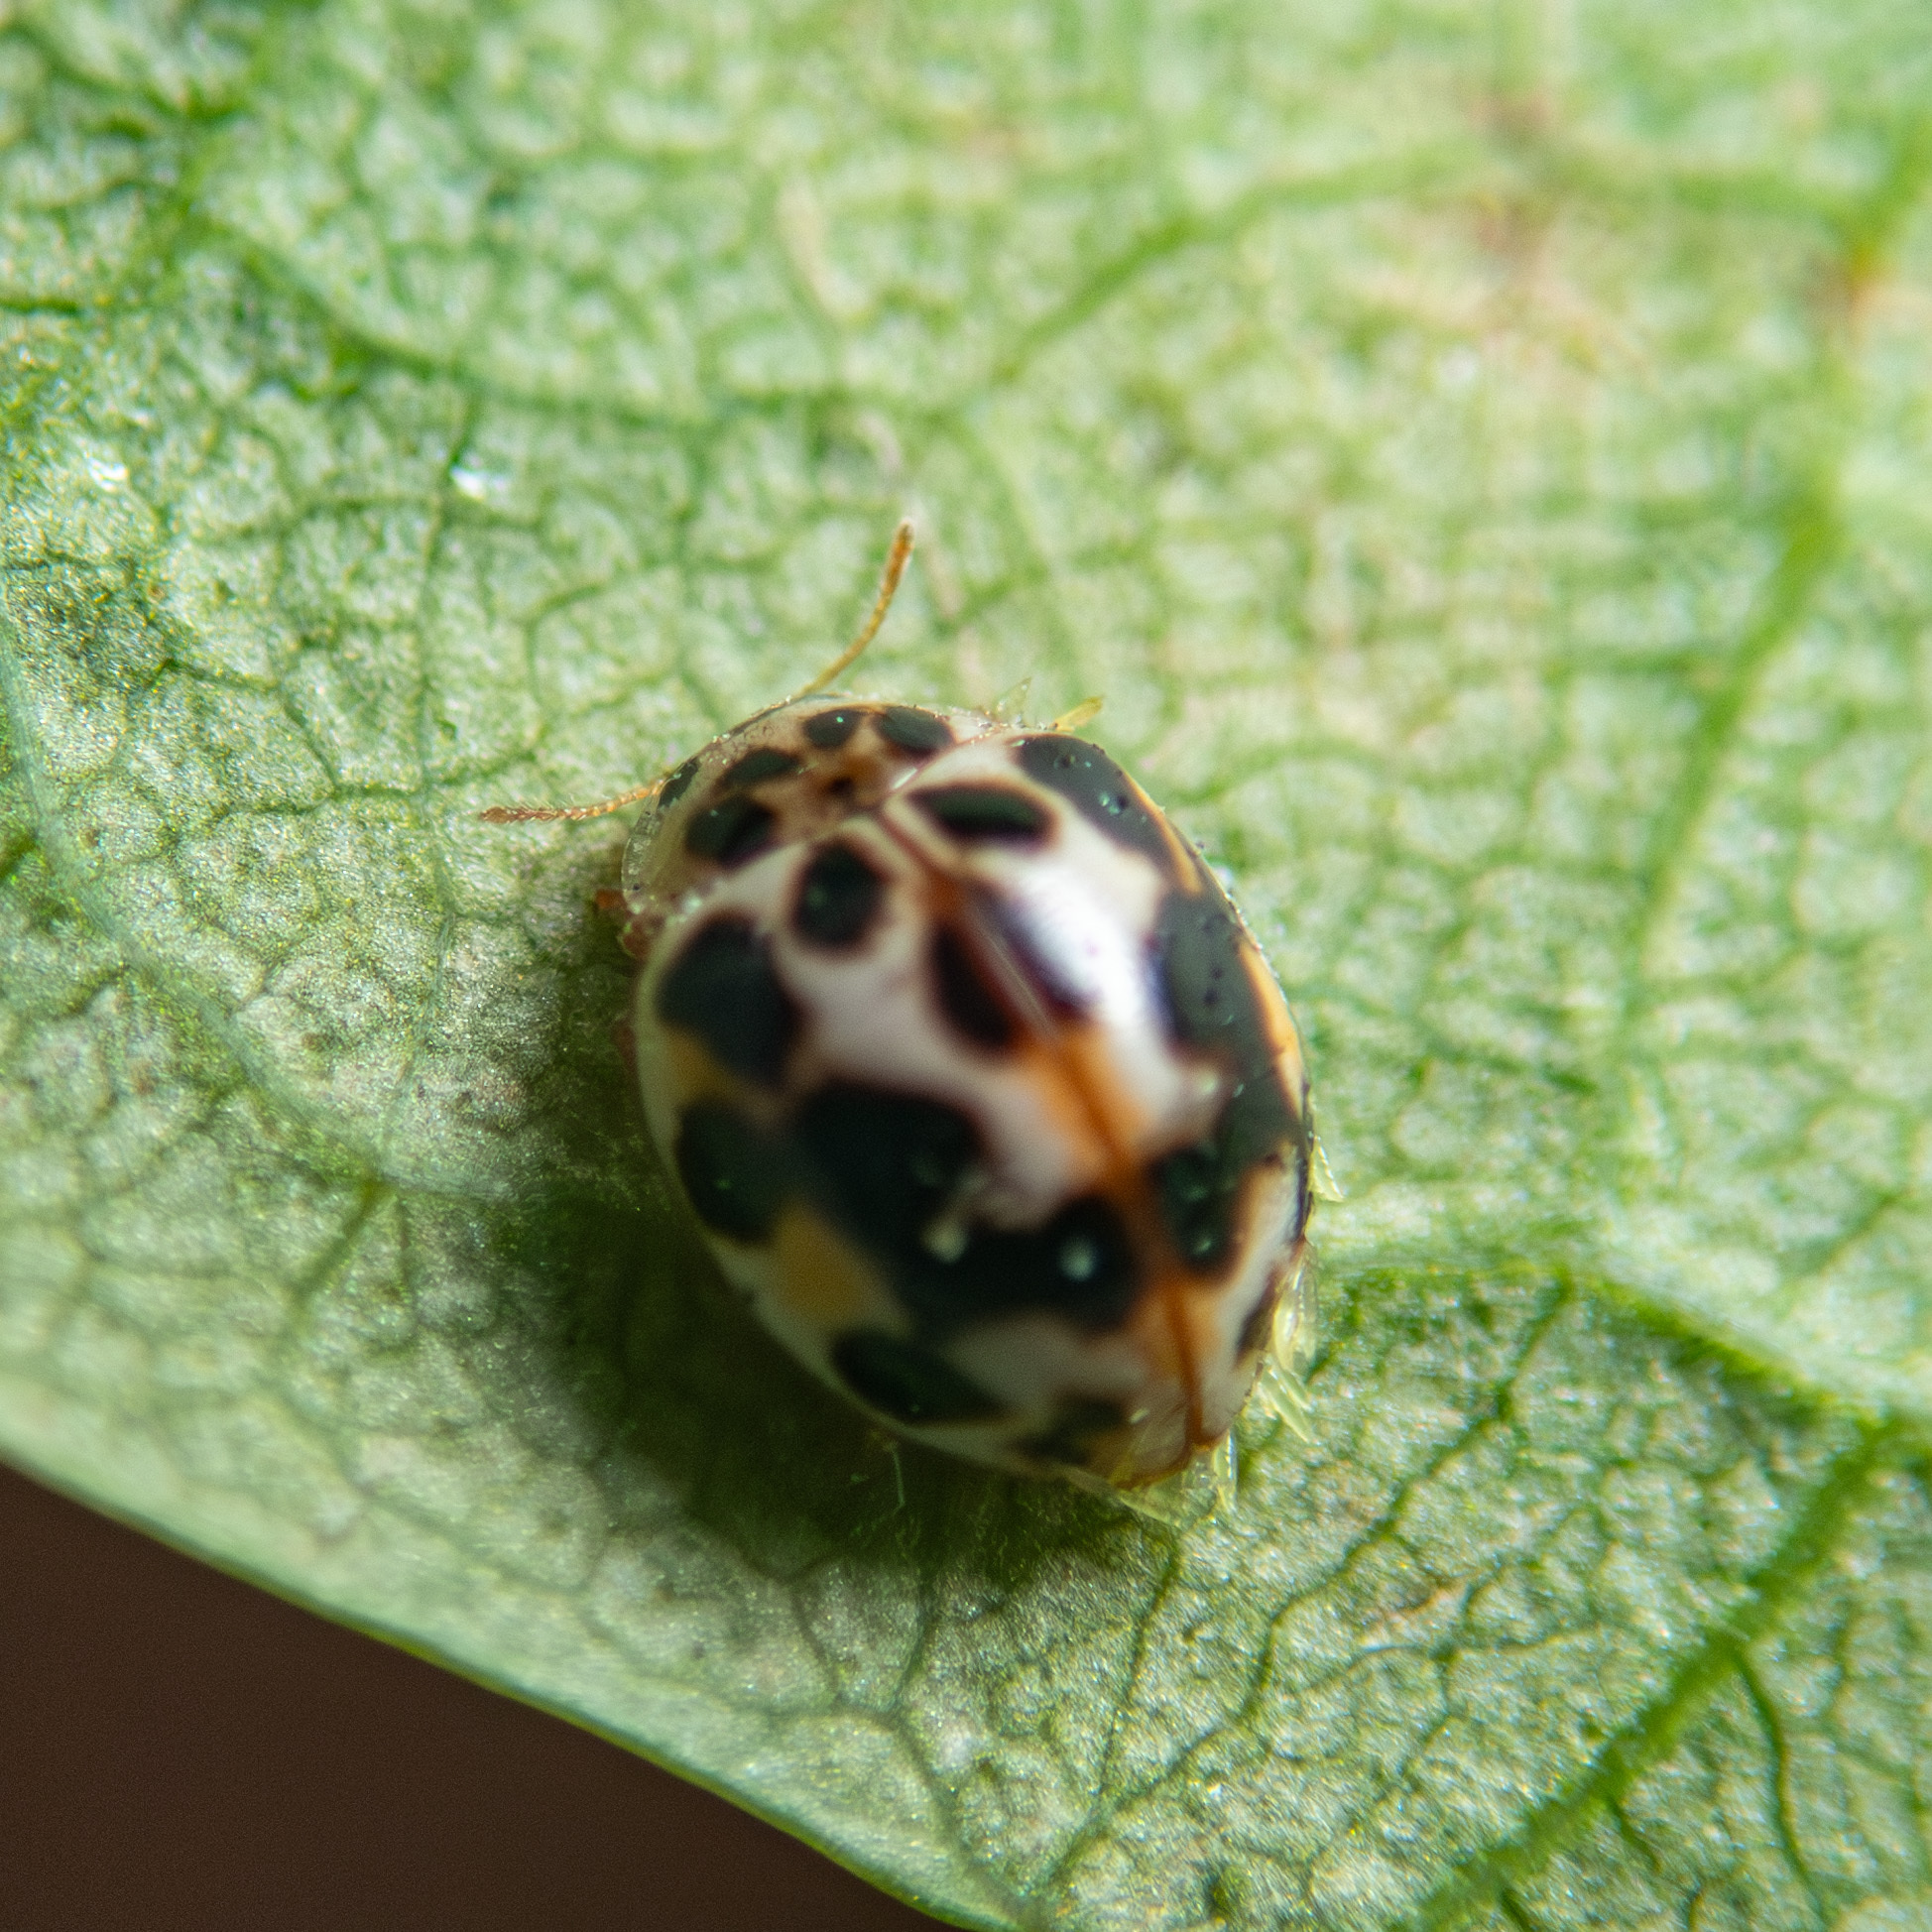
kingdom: Animalia
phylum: Arthropoda
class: Insecta
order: Coleoptera
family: Coccinellidae
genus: Psyllobora
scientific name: Psyllobora vigintimaculata
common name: Ladybird beetle
